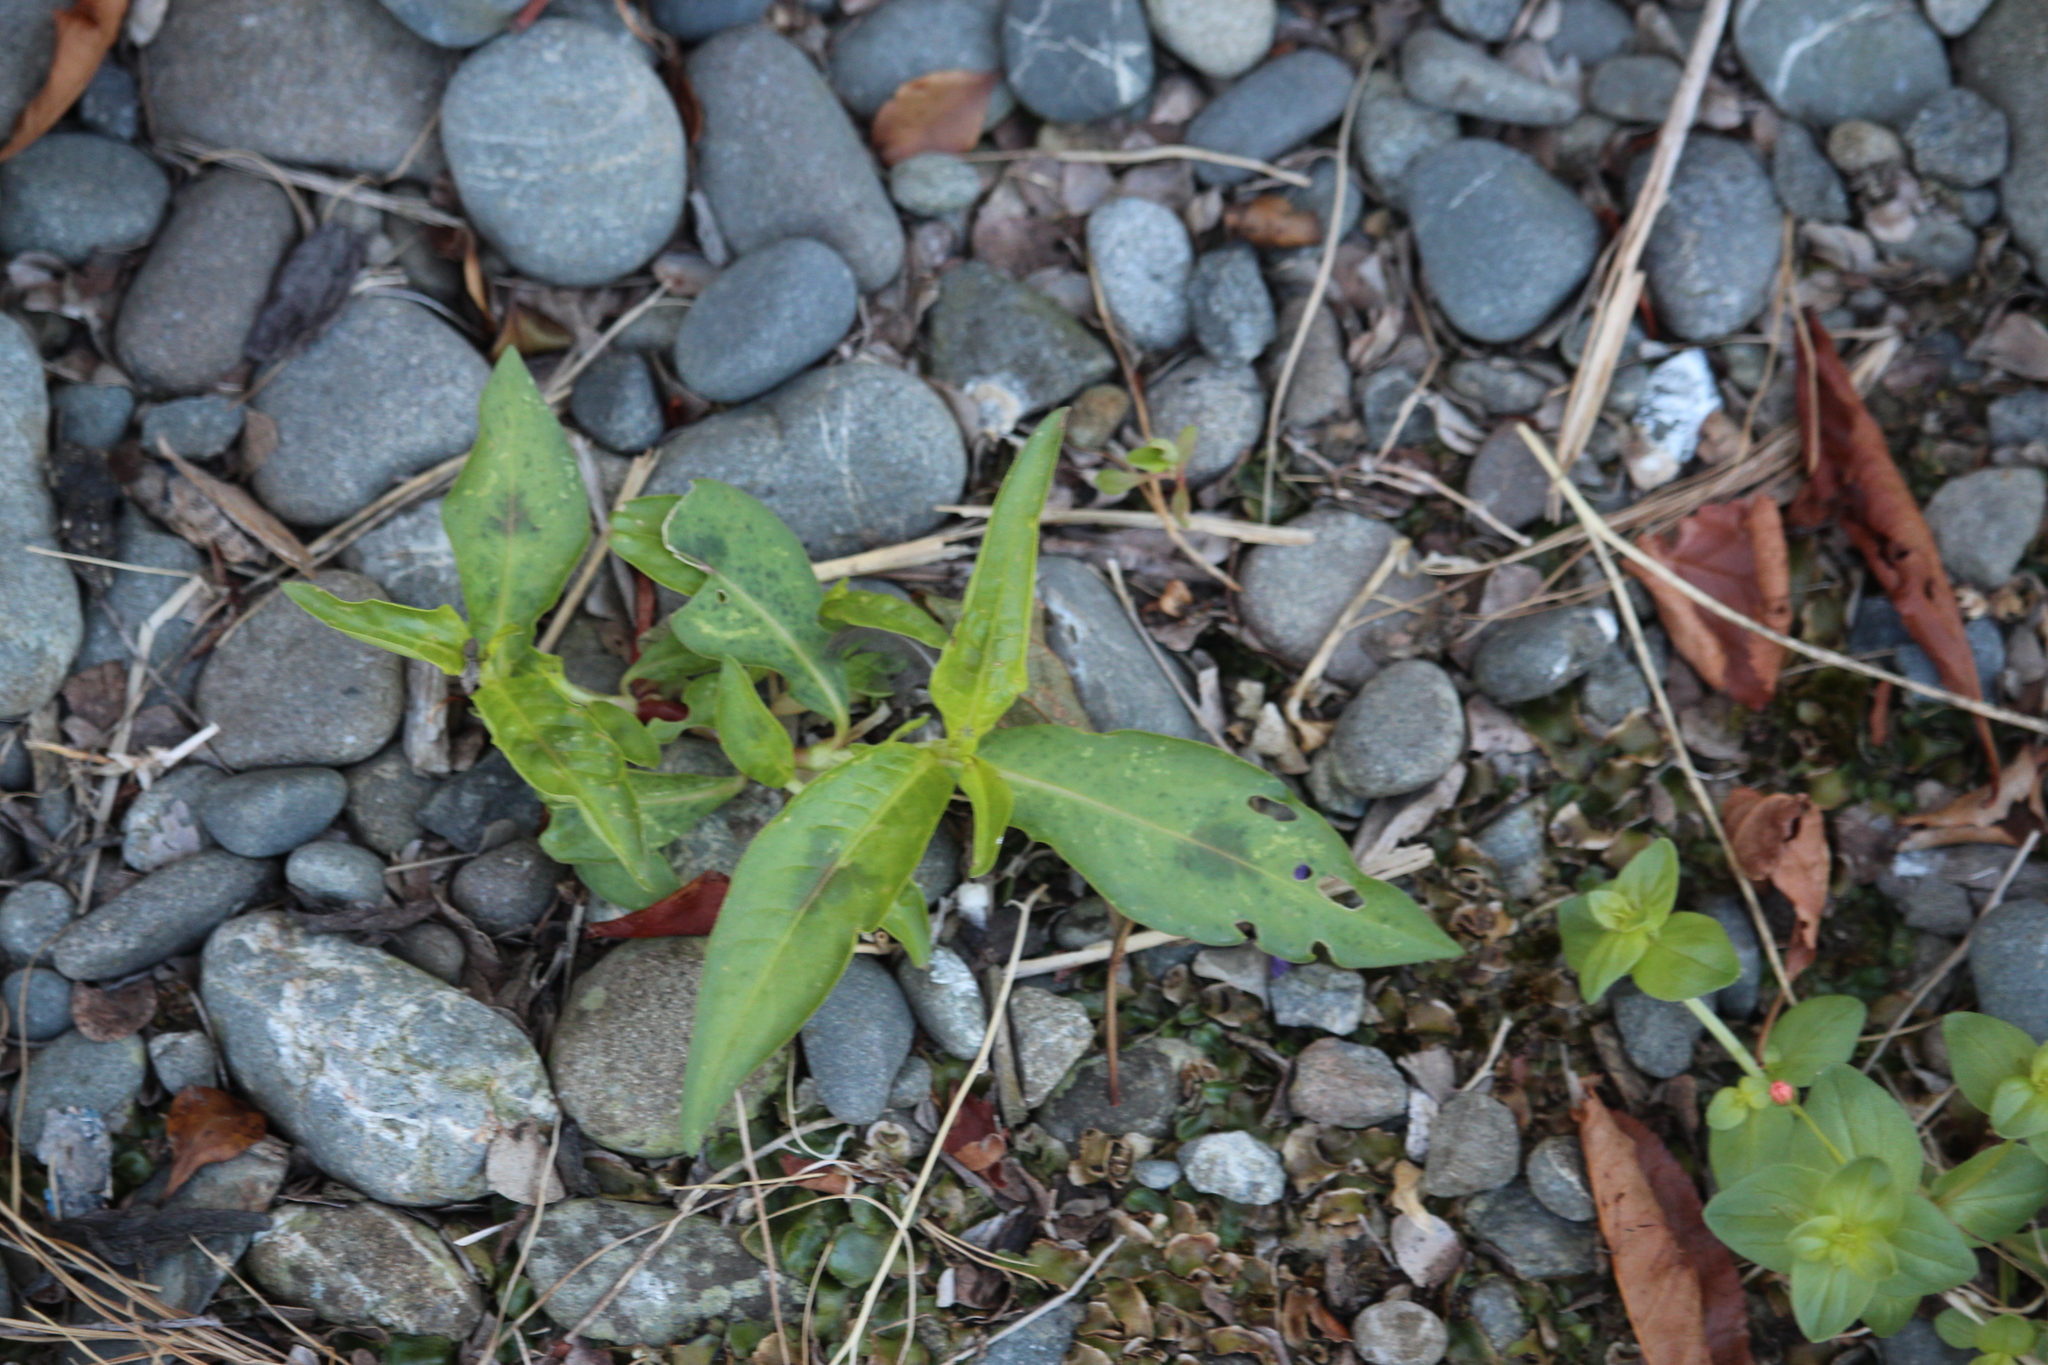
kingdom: Plantae
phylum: Tracheophyta
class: Magnoliopsida
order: Caryophyllales
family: Polygonaceae
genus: Persicaria
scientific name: Persicaria maculosa
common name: Redshank
